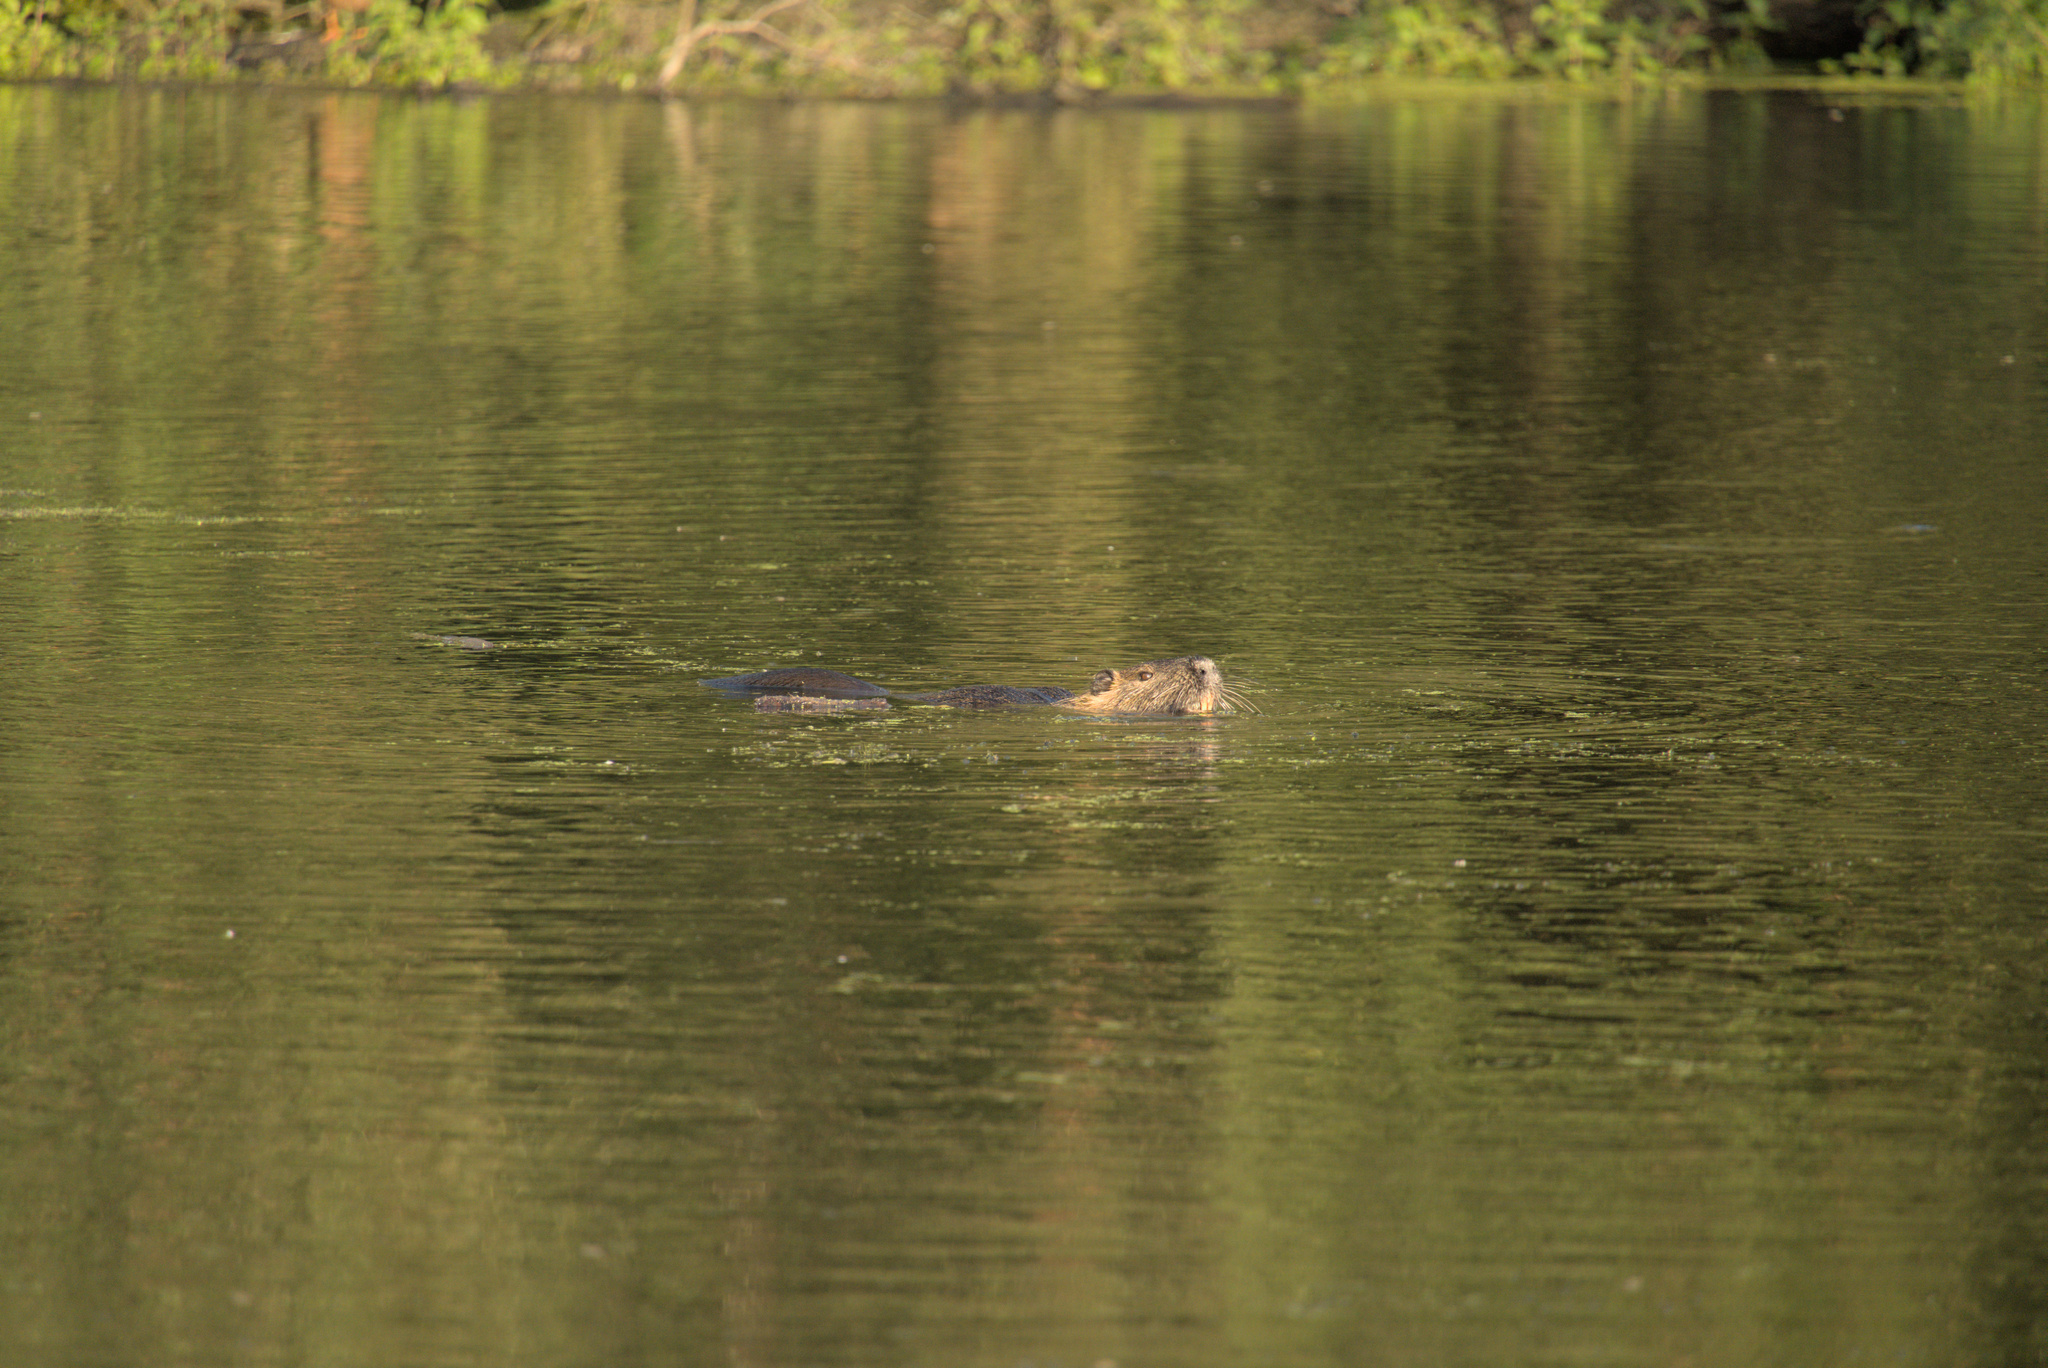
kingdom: Animalia
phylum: Chordata
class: Mammalia
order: Rodentia
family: Myocastoridae
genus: Myocastor
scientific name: Myocastor coypus
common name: Coypu
